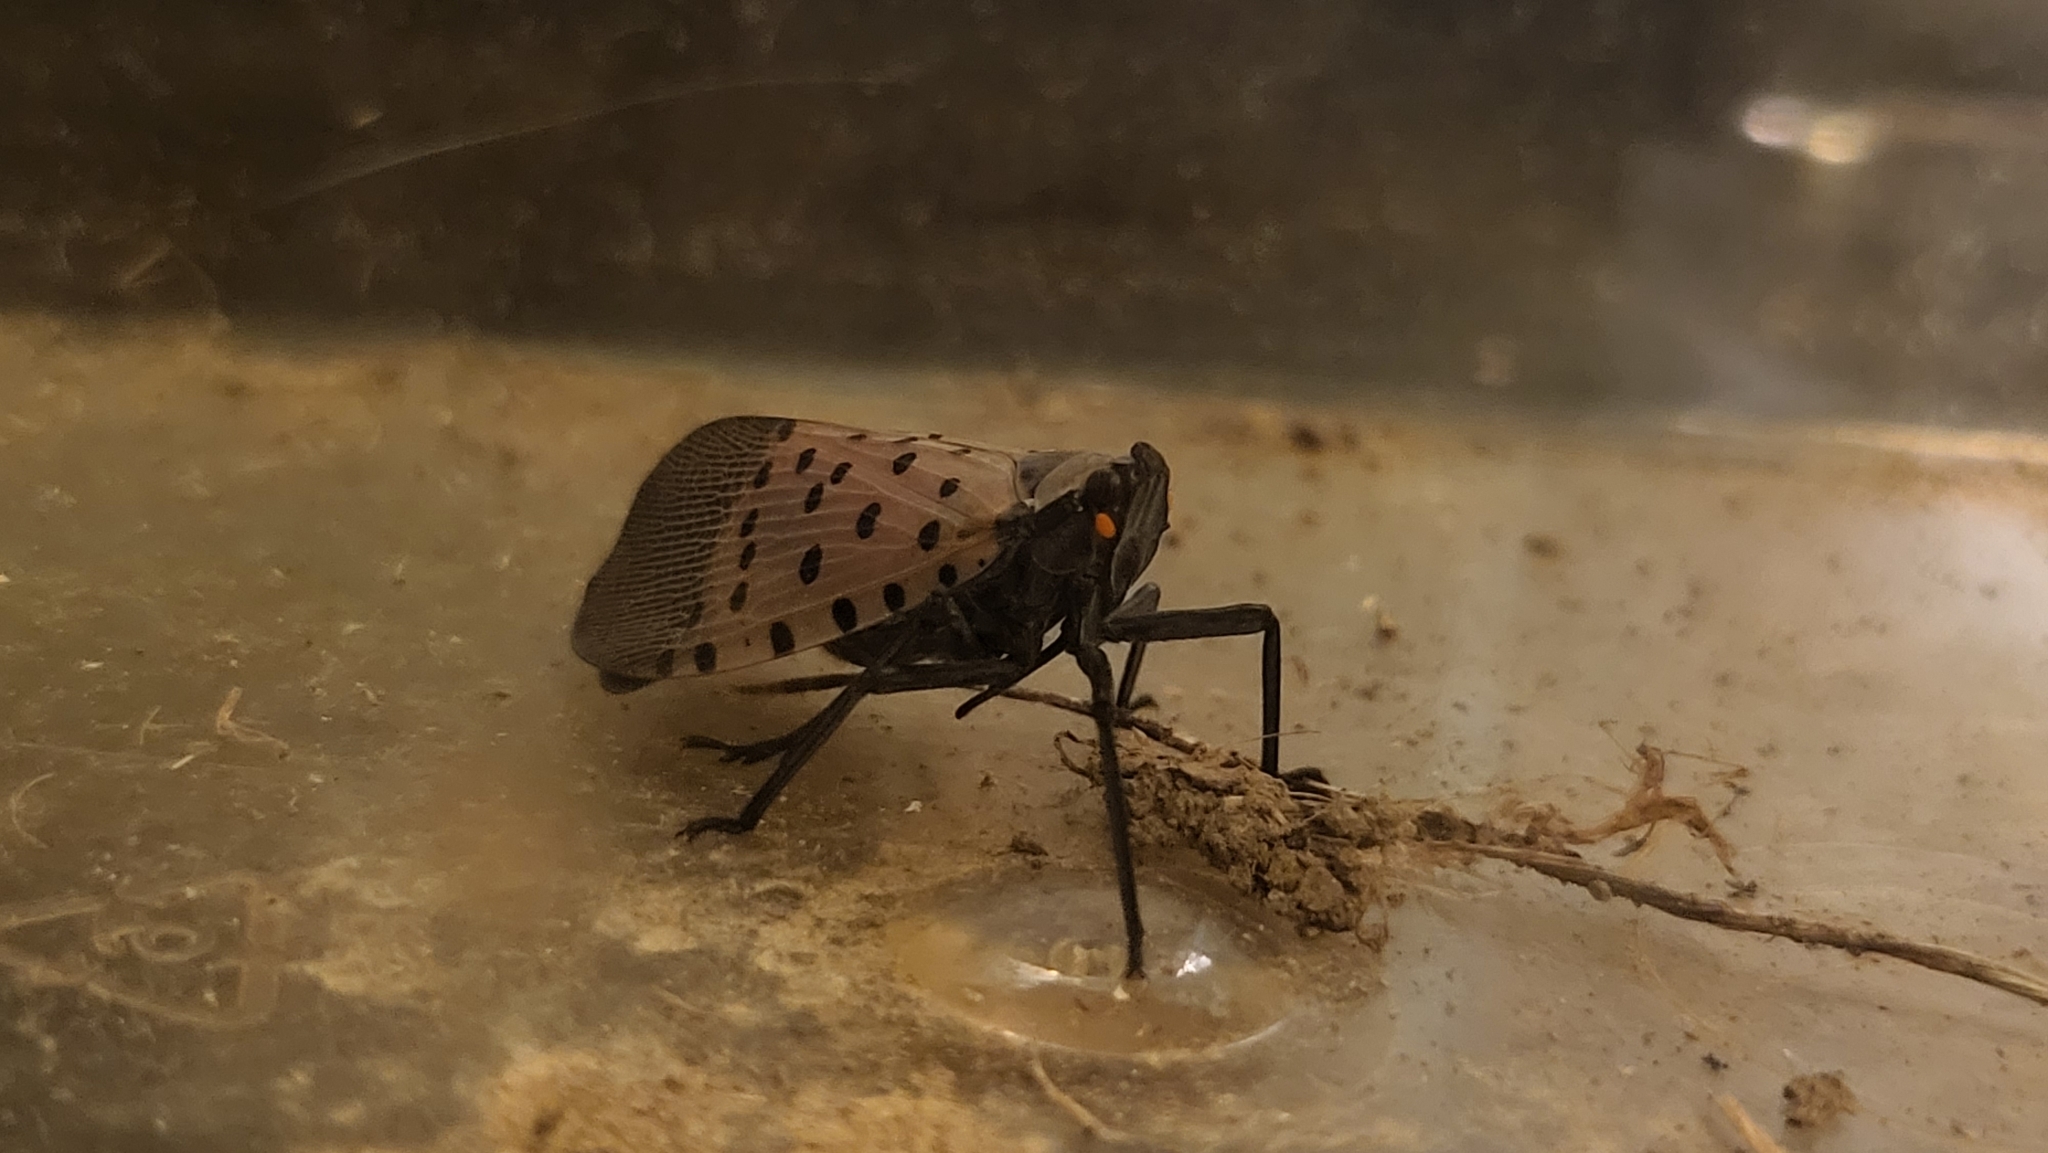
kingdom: Animalia
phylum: Arthropoda
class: Insecta
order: Hemiptera
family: Fulgoridae
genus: Lycorma
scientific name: Lycorma delicatula
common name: Spotted lanternfly
